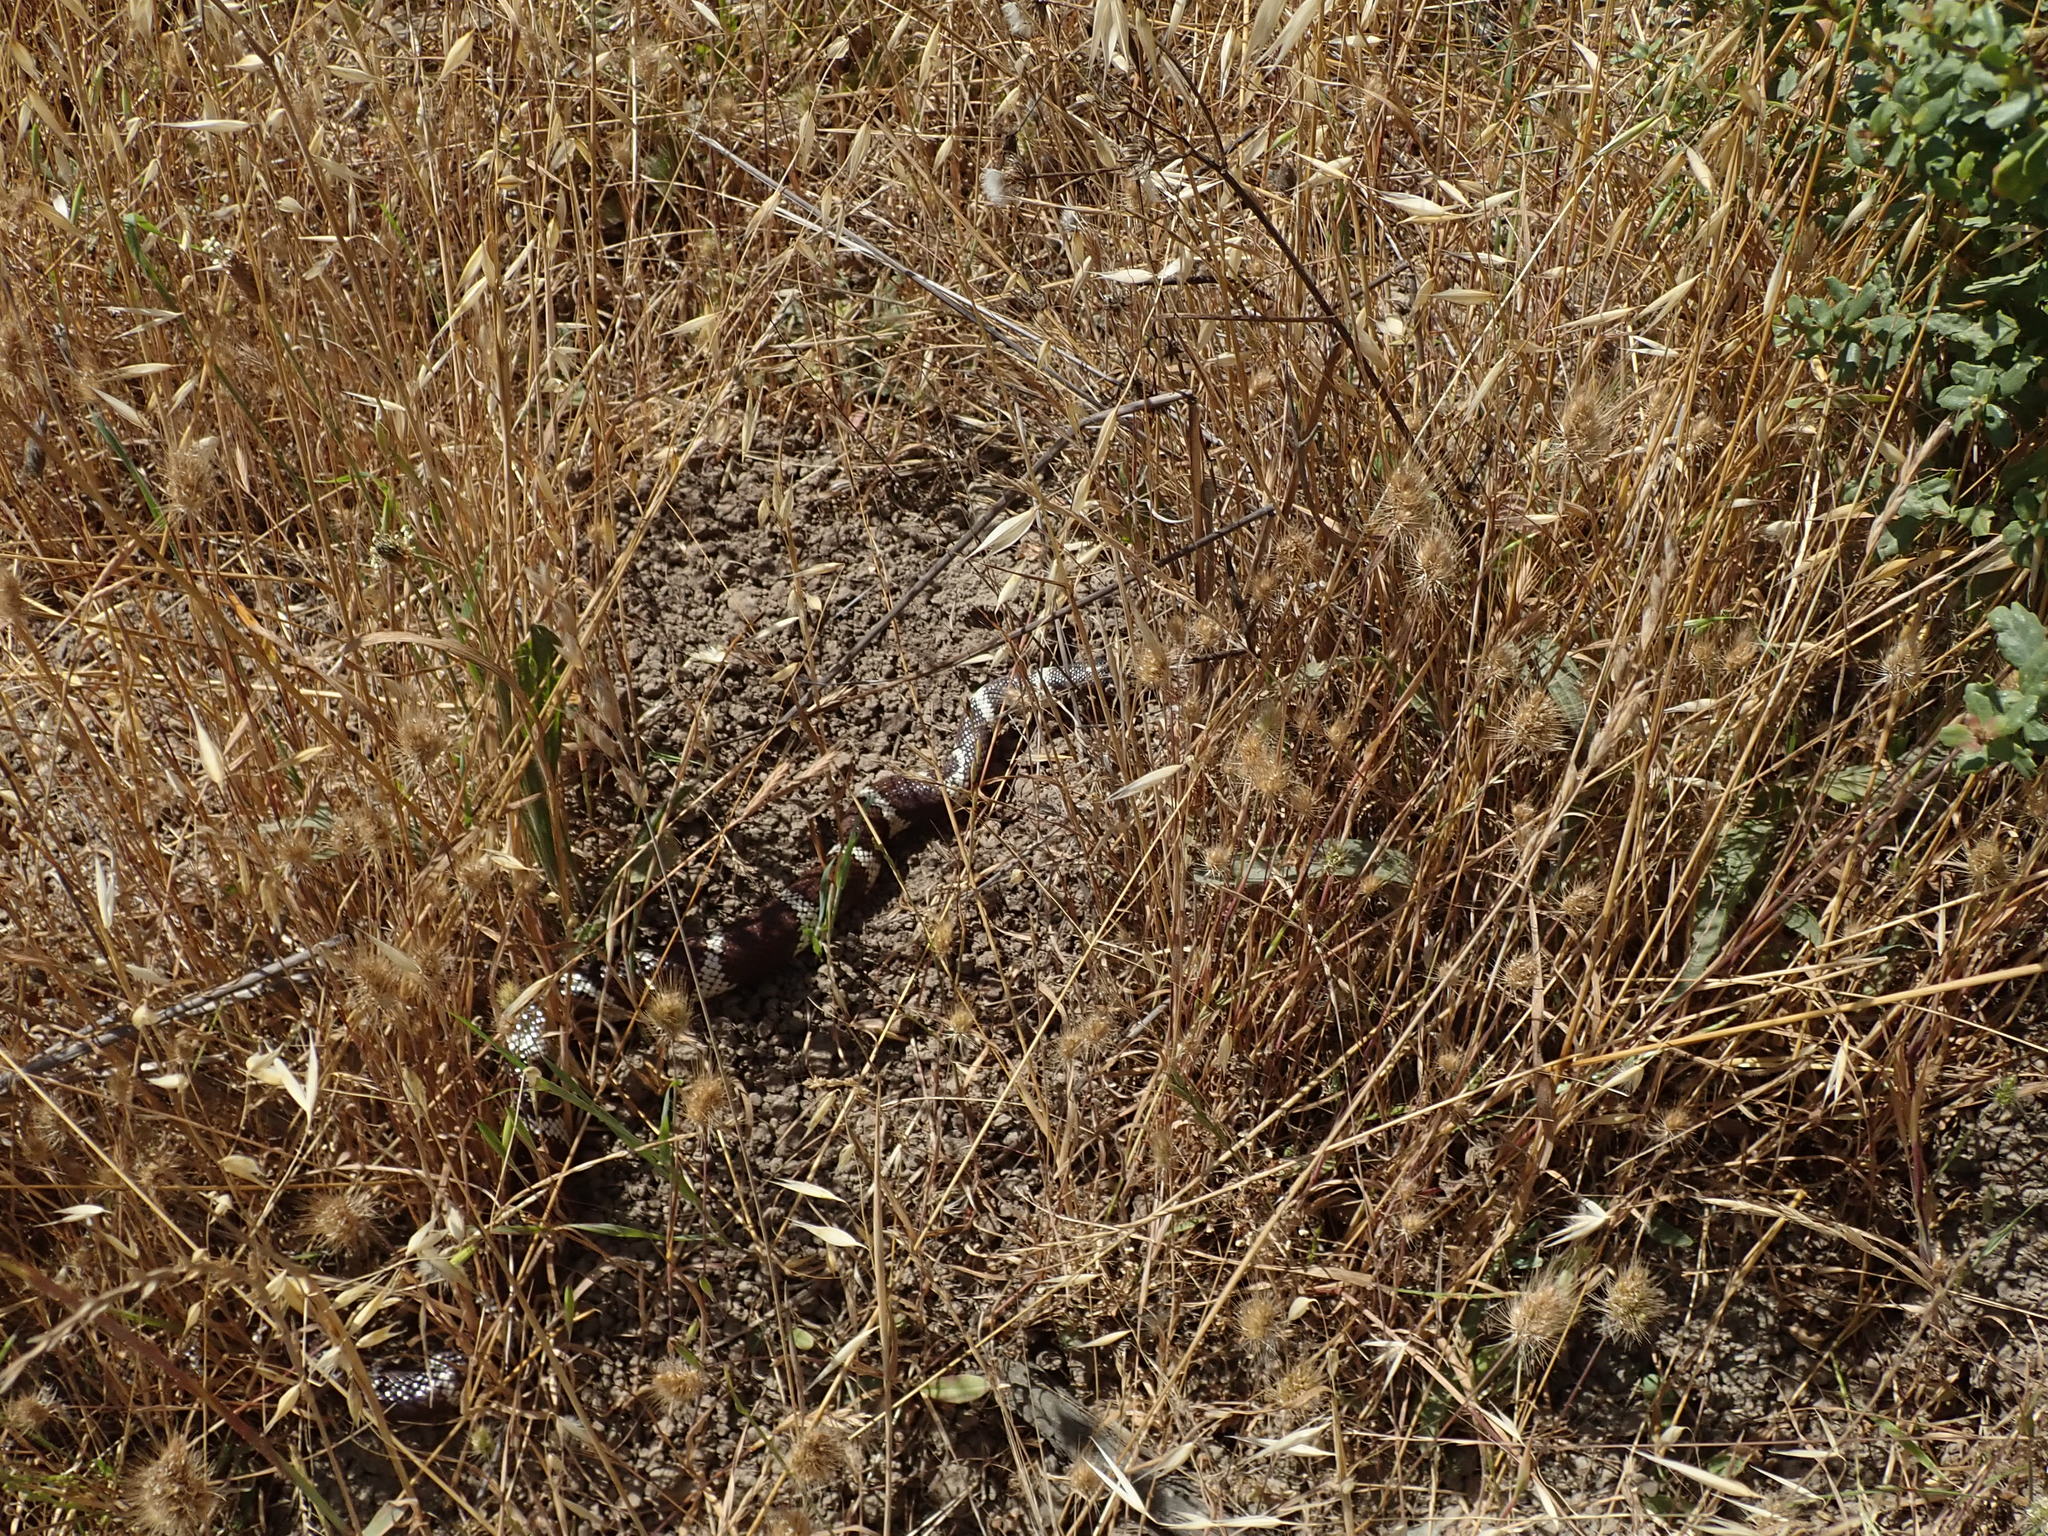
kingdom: Animalia
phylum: Chordata
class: Squamata
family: Colubridae
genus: Lampropeltis
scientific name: Lampropeltis californiae
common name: California kingsnake
